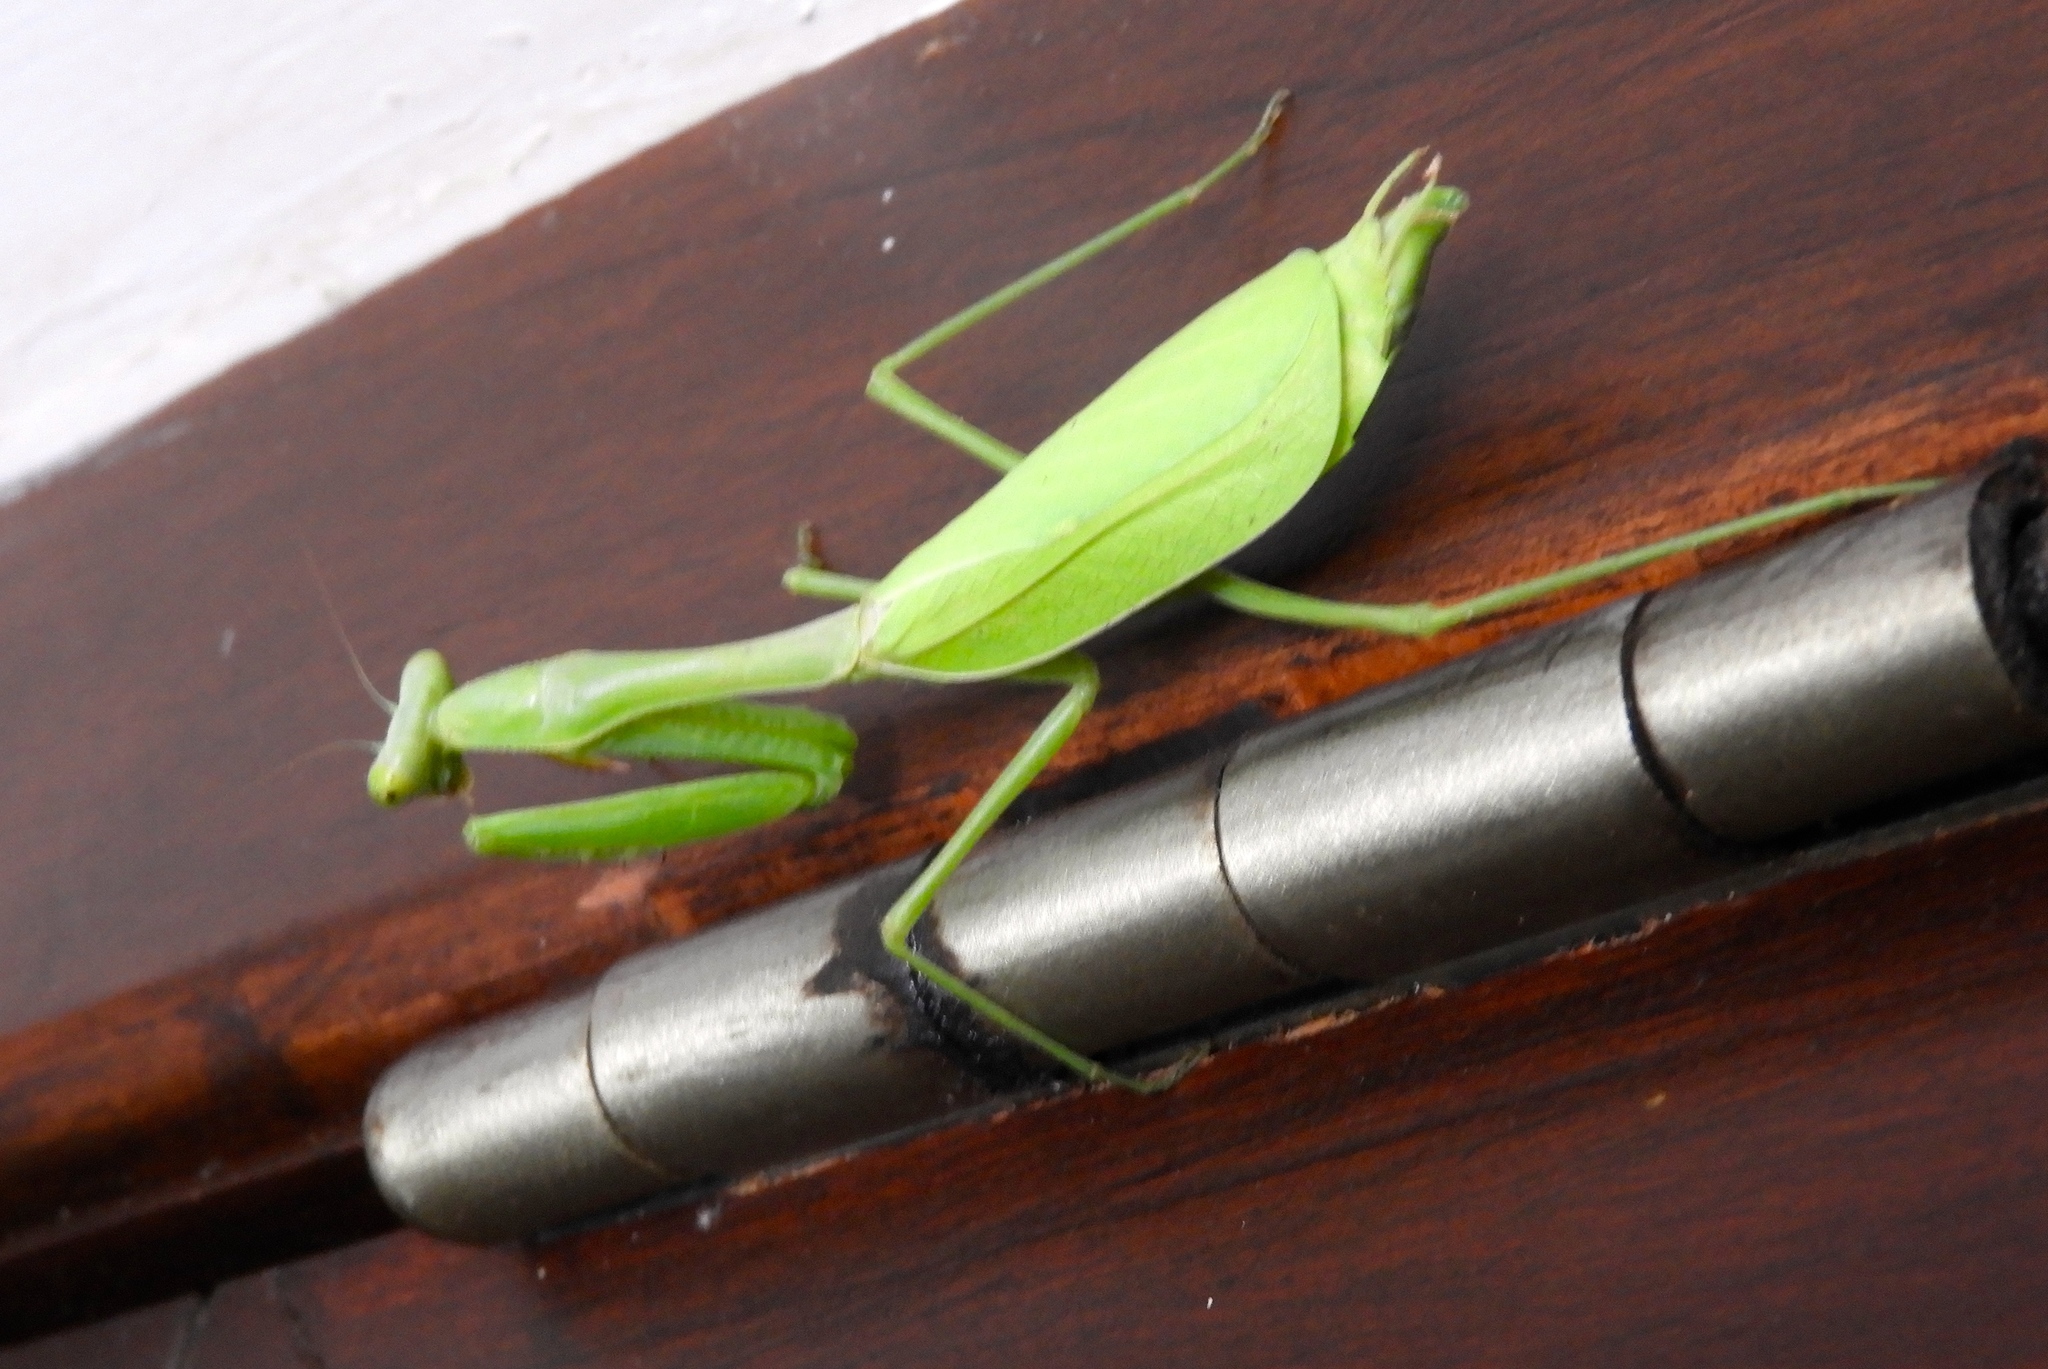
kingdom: Animalia
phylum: Arthropoda
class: Insecta
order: Mantodea
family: Mantidae
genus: Stagmomantis
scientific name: Stagmomantis limbata
